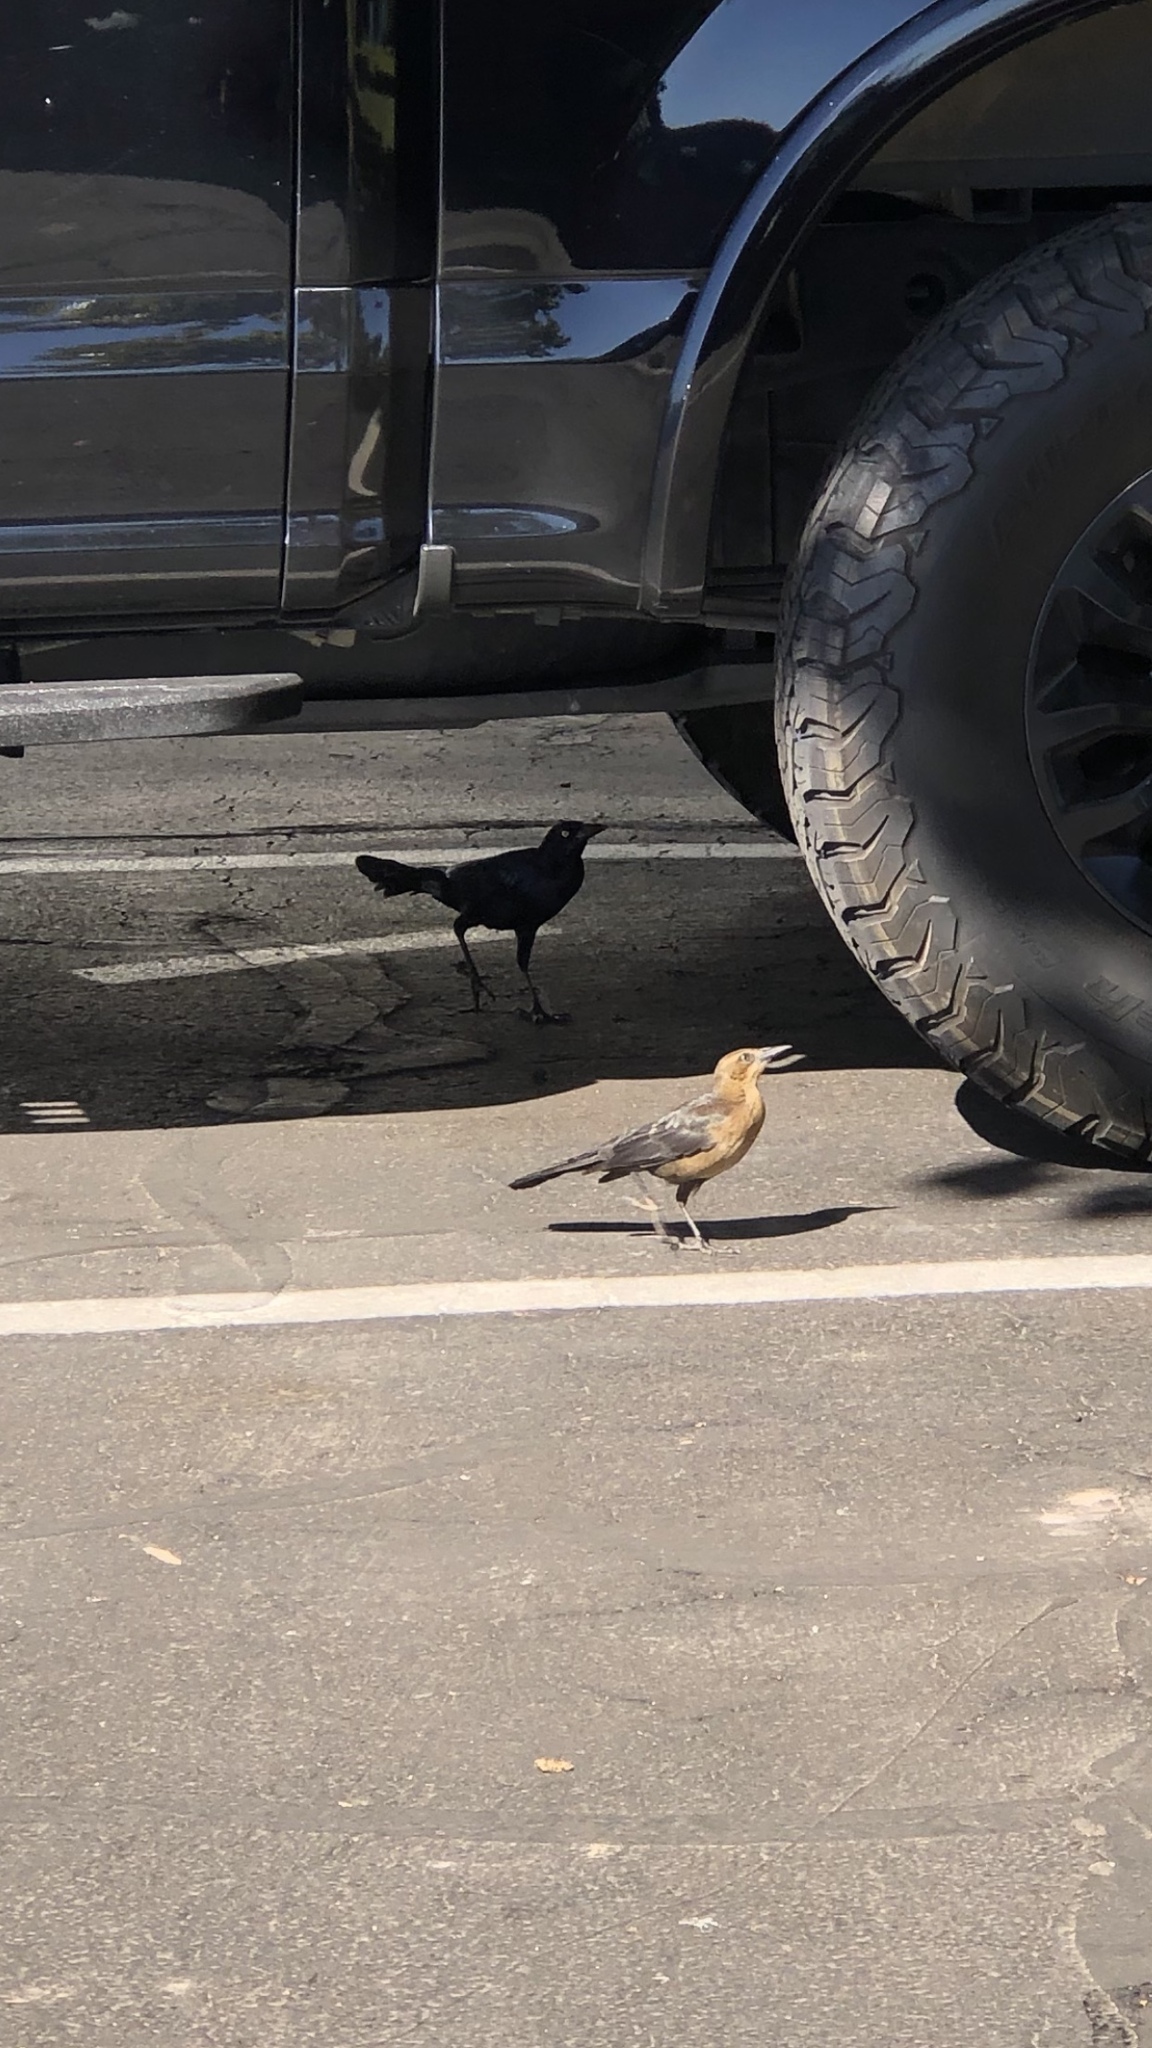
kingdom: Animalia
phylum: Chordata
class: Aves
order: Passeriformes
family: Icteridae
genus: Quiscalus
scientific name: Quiscalus mexicanus
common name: Great-tailed grackle
